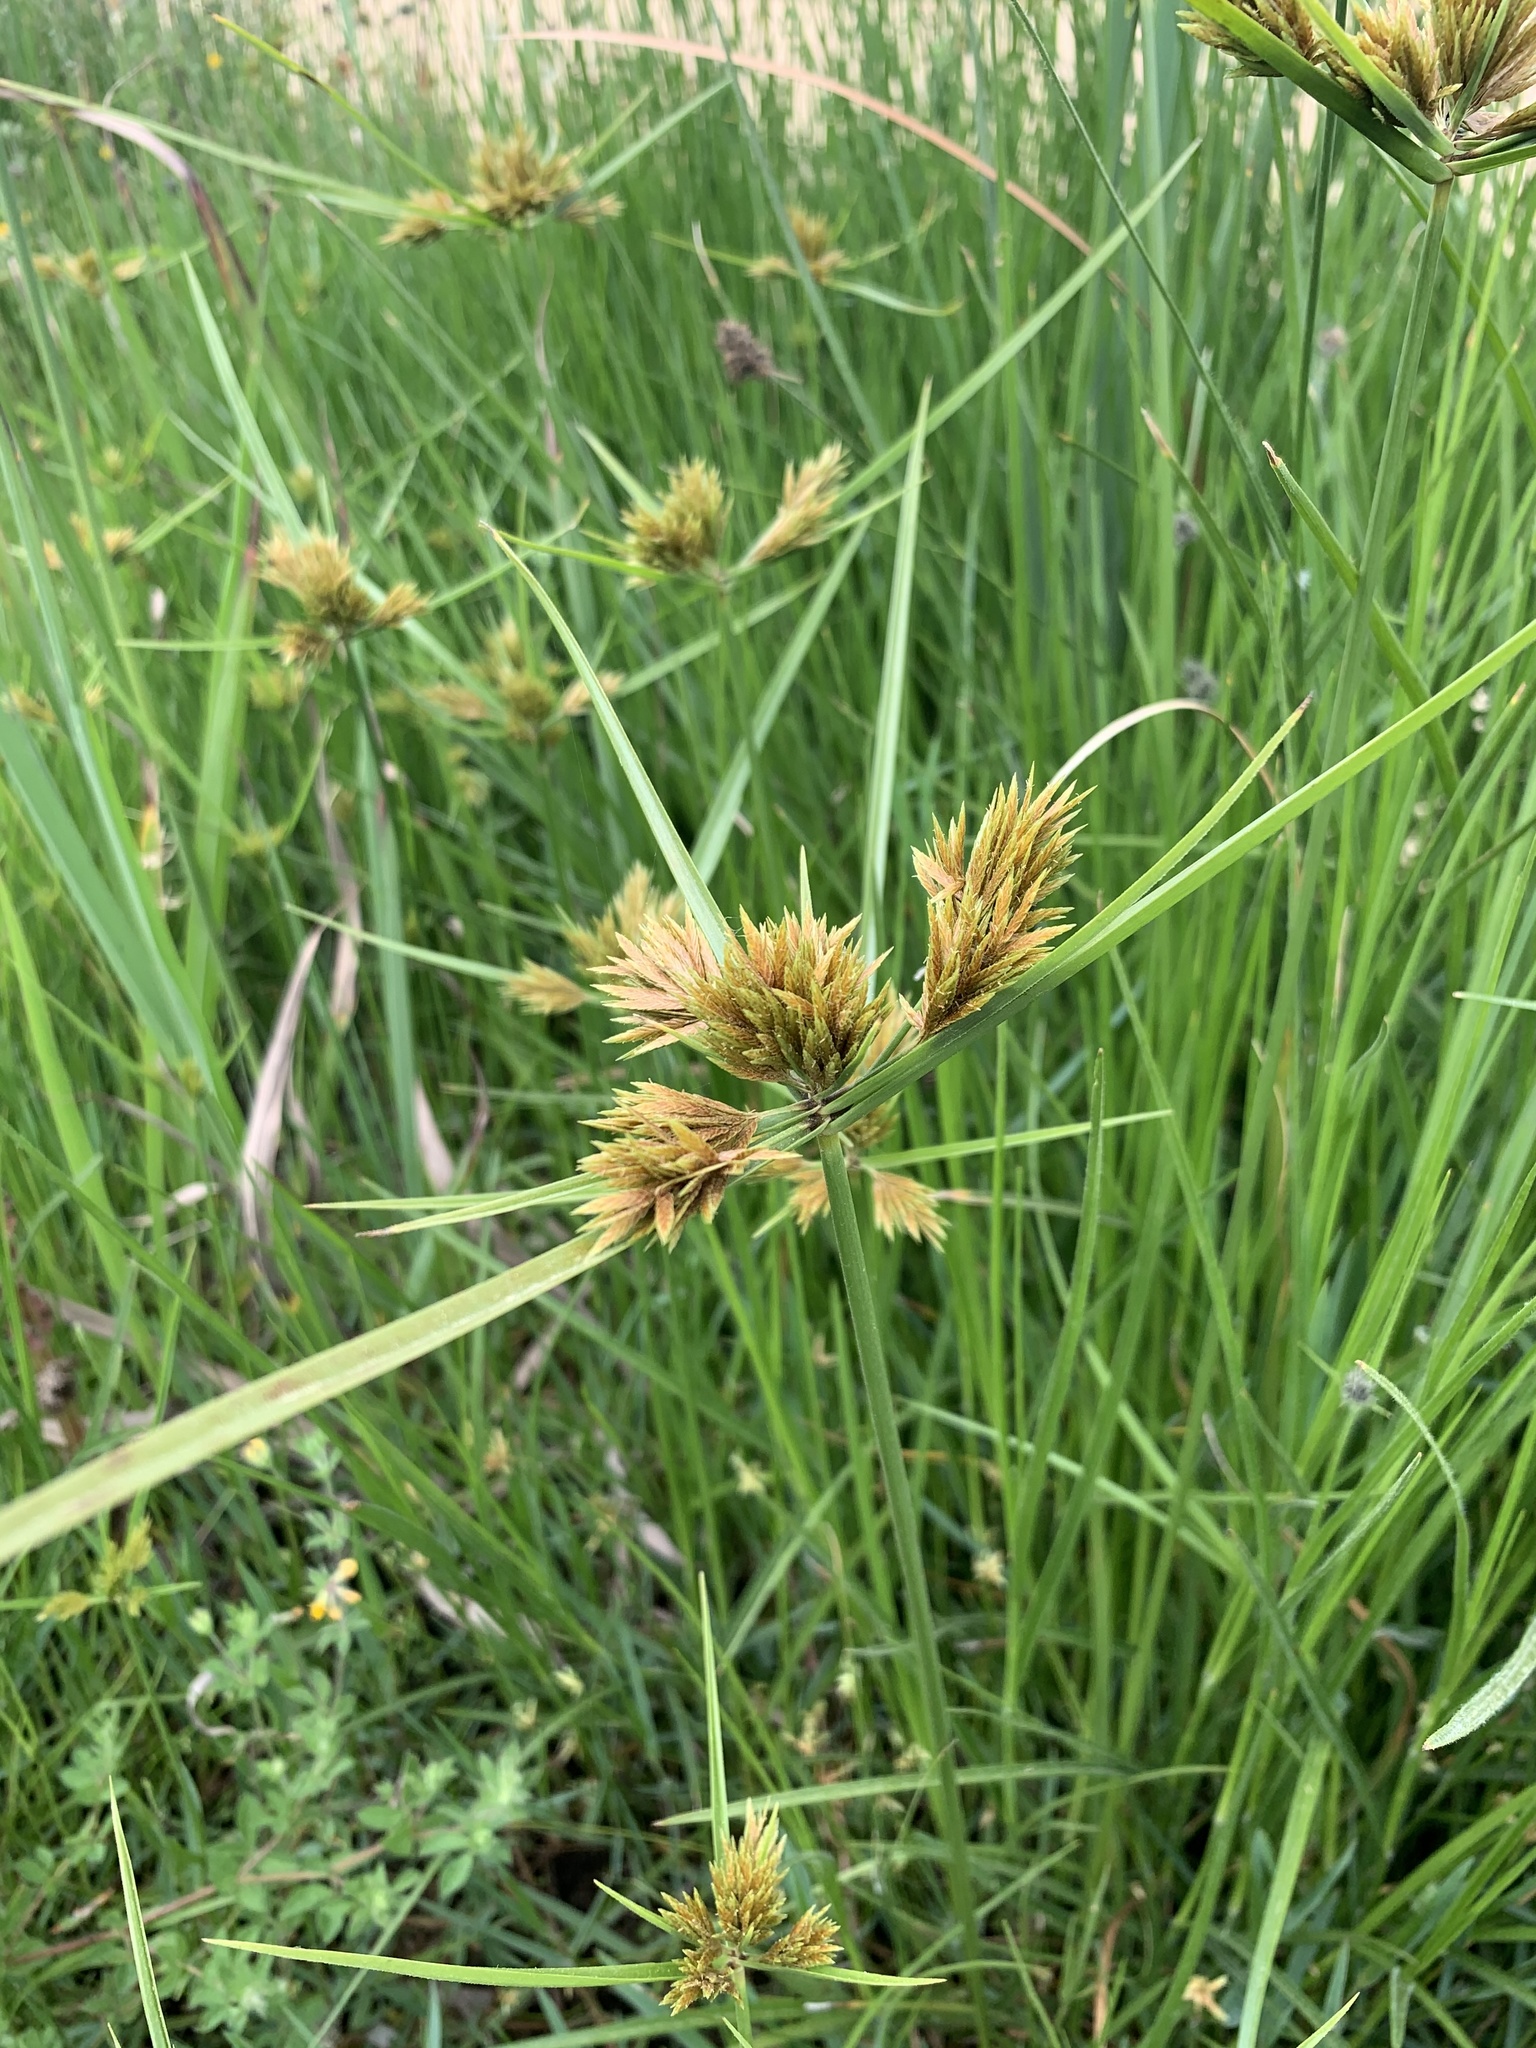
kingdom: Plantae
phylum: Tracheophyta
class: Liliopsida
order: Poales
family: Cyperaceae
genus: Cyperus
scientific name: Cyperus polystachyos
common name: Bunchy flat sedge
